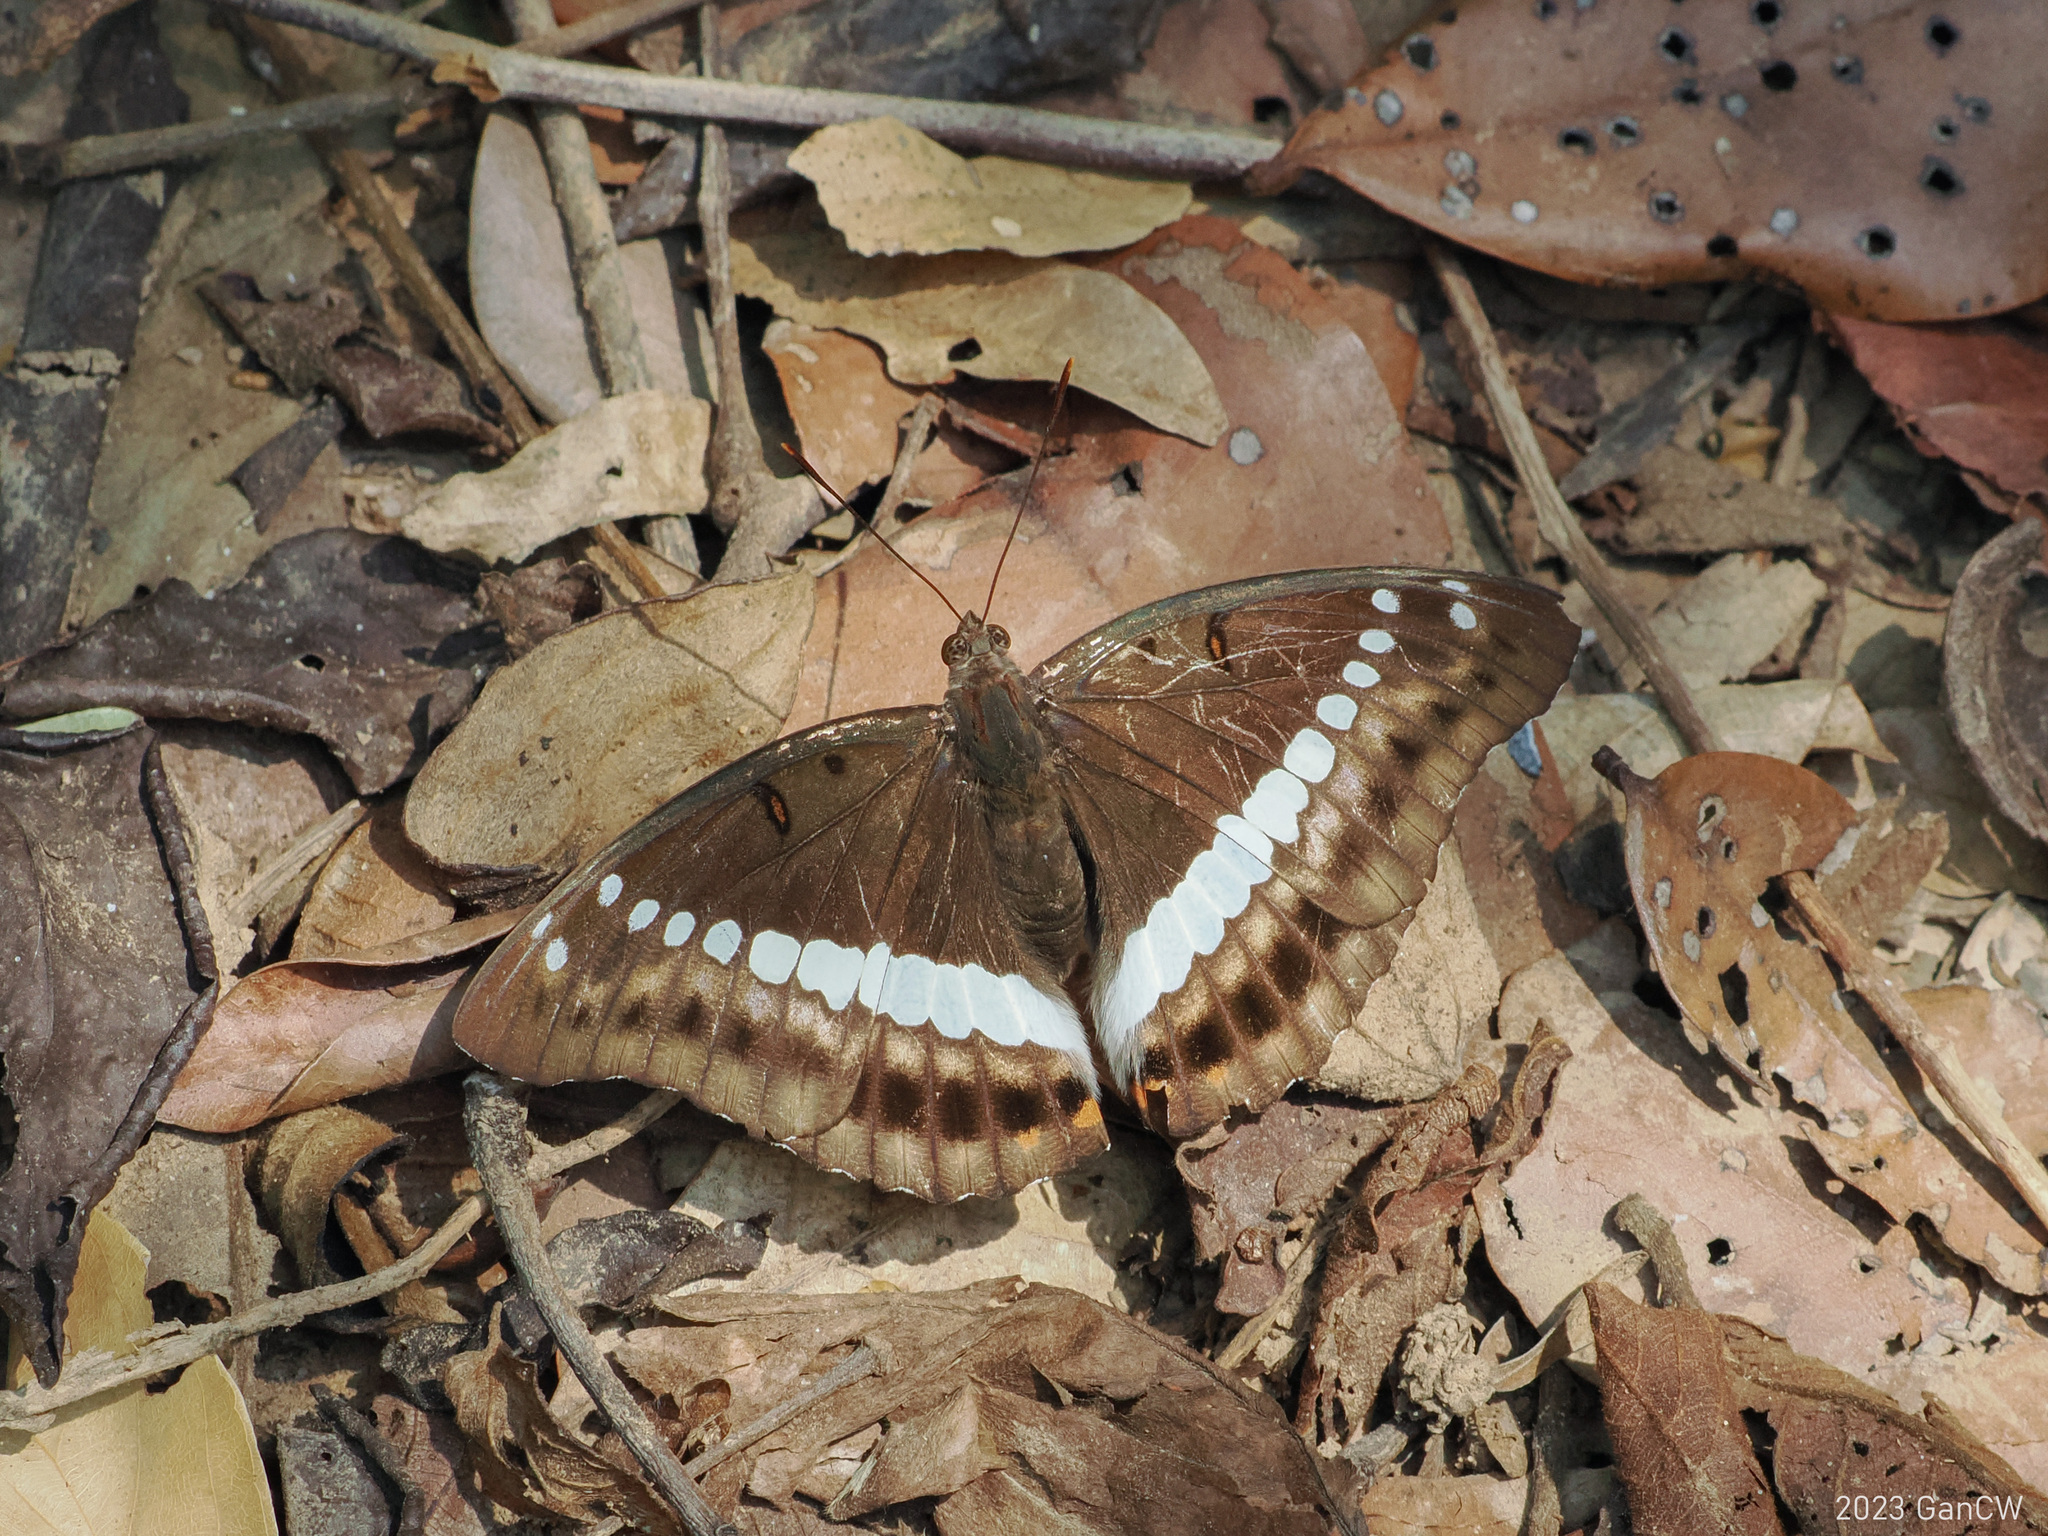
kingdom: Animalia
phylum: Arthropoda
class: Insecta
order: Lepidoptera
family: Nymphalidae
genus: Euthalia
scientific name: Euthalia recta
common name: Redtail marquis
